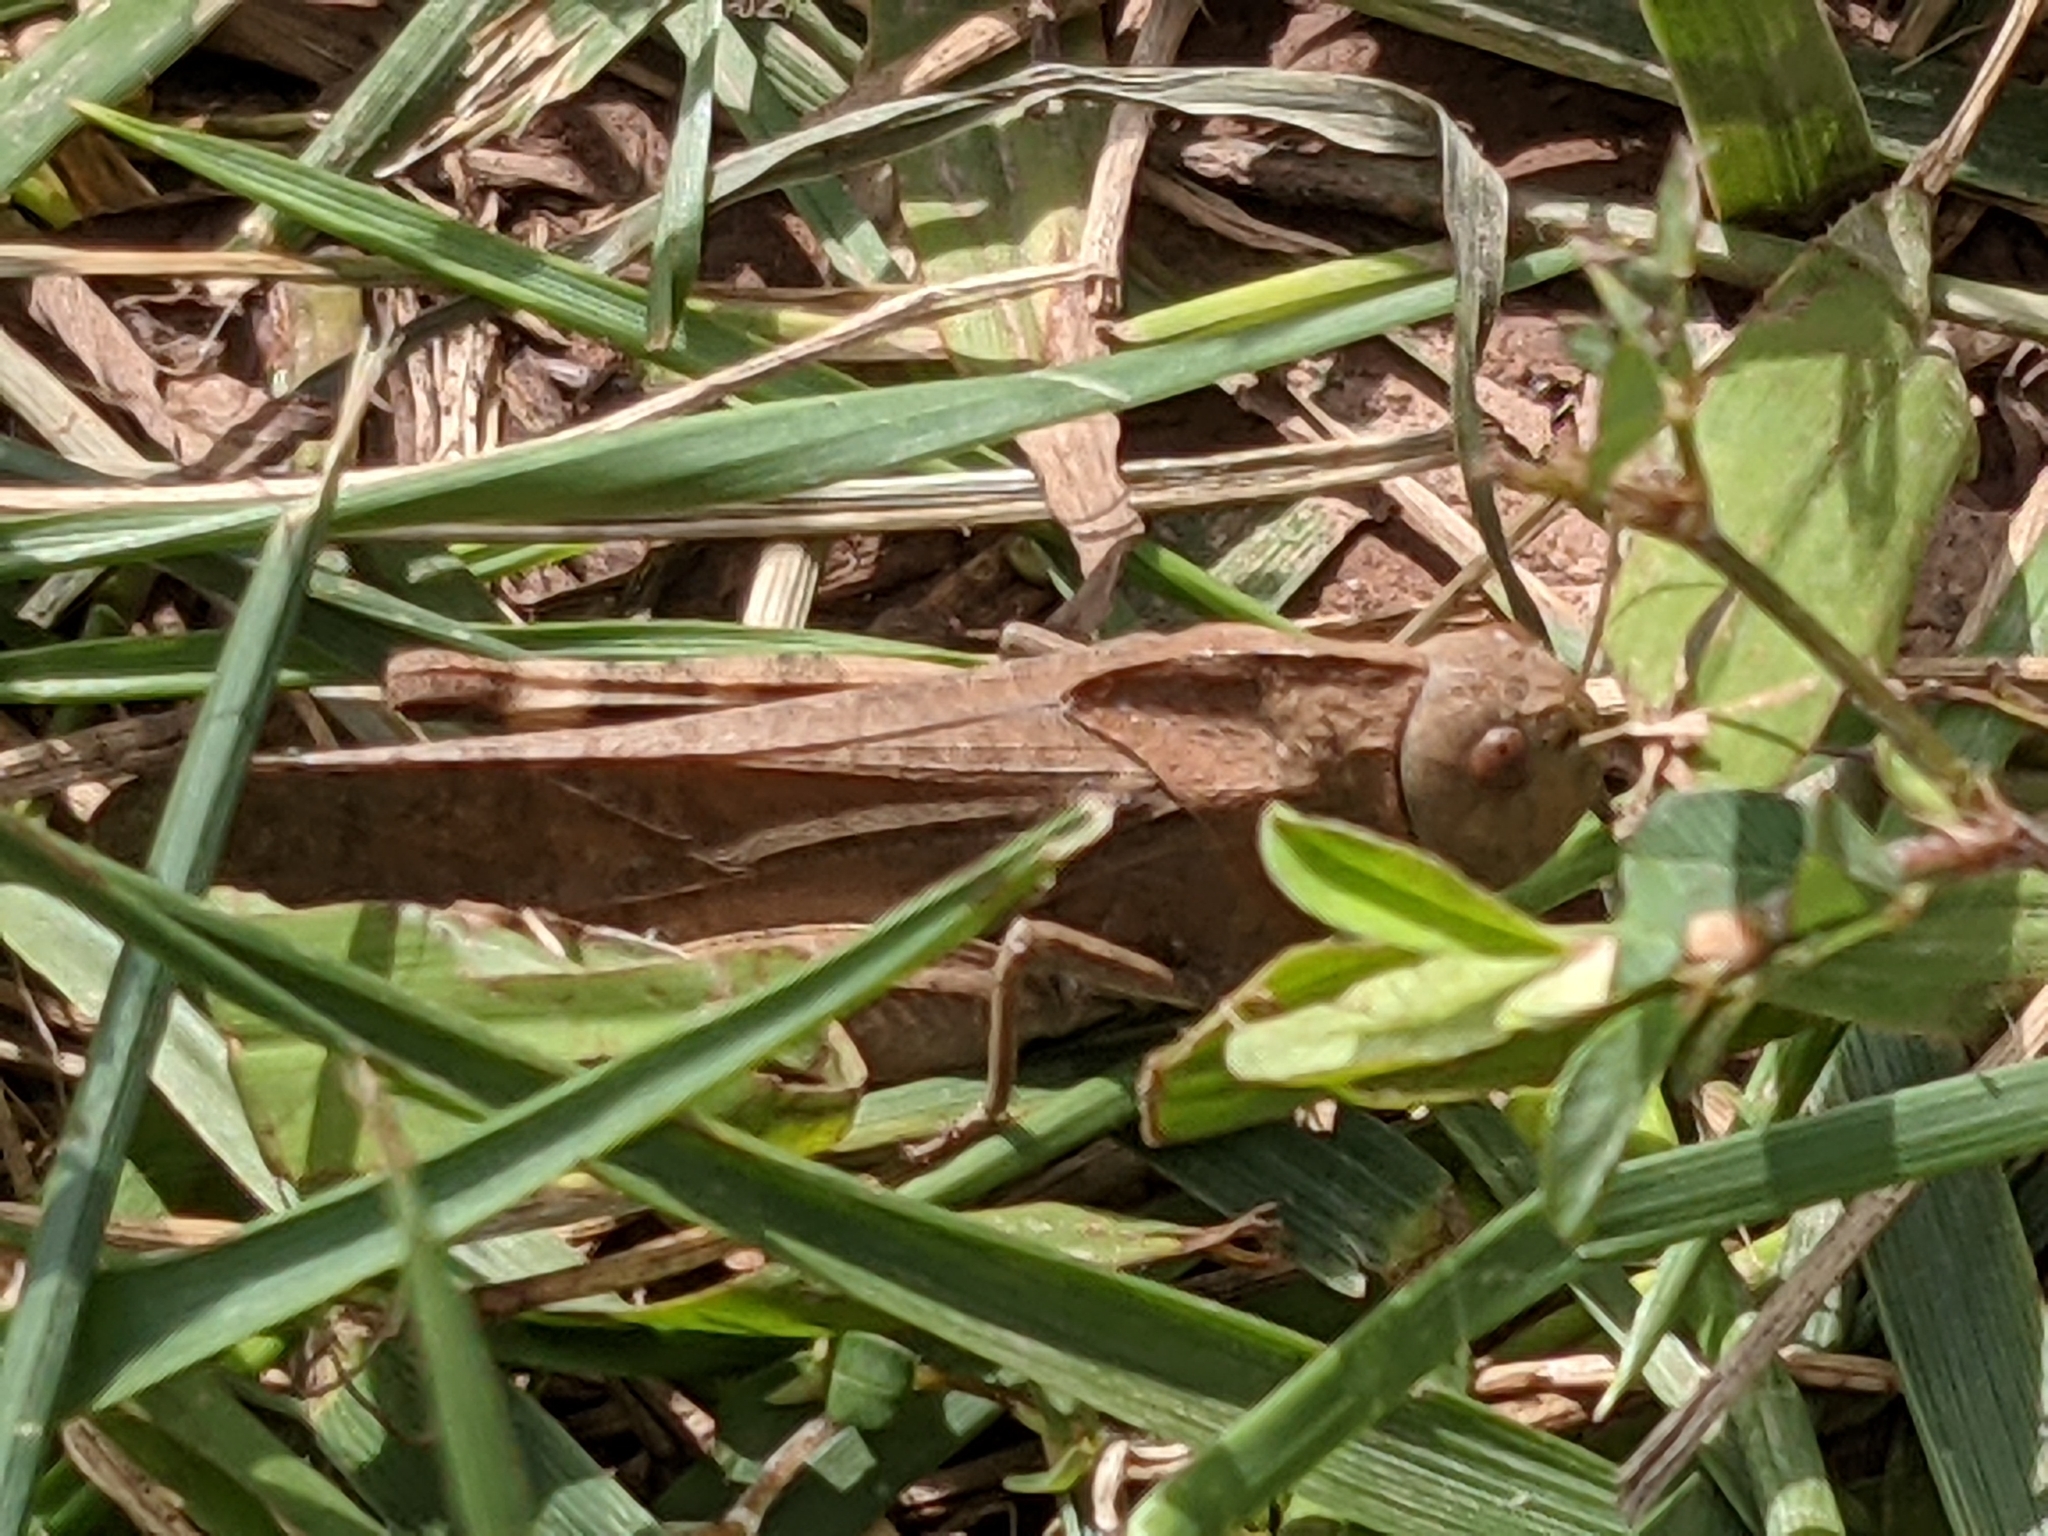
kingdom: Animalia
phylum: Arthropoda
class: Insecta
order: Orthoptera
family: Acrididae
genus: Arphia
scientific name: Arphia xanthoptera
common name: Autumn yellow-winged grasshopper
